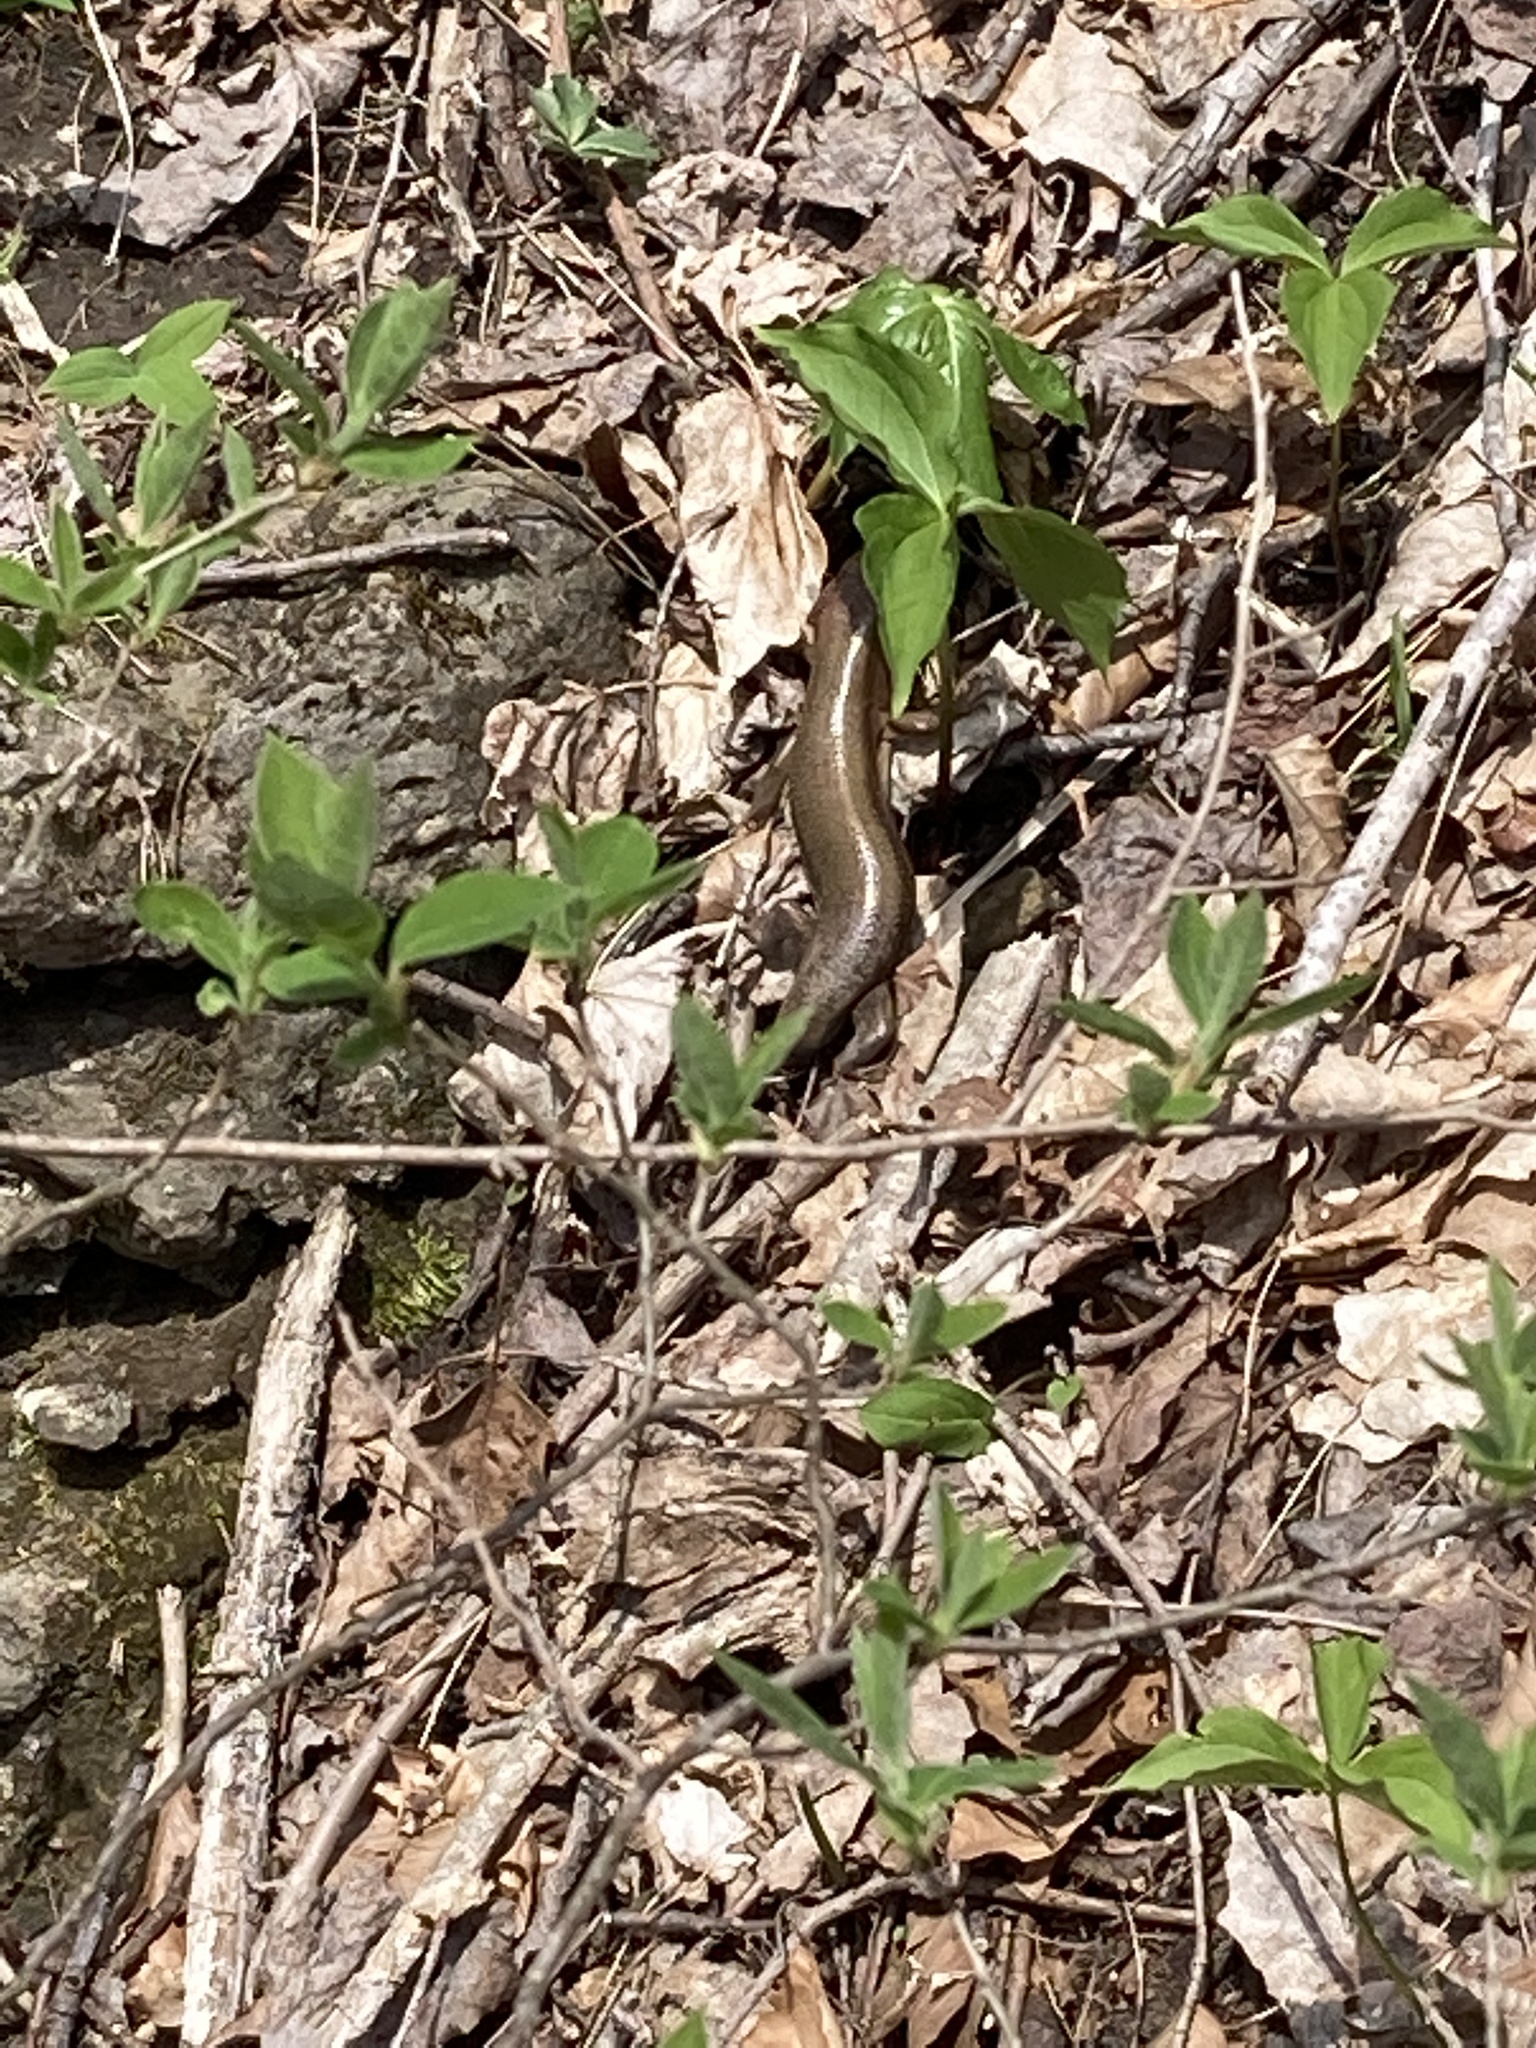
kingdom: Animalia
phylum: Chordata
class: Squamata
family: Scincidae
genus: Plestiodon
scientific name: Plestiodon laticeps
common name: Broadhead skink
